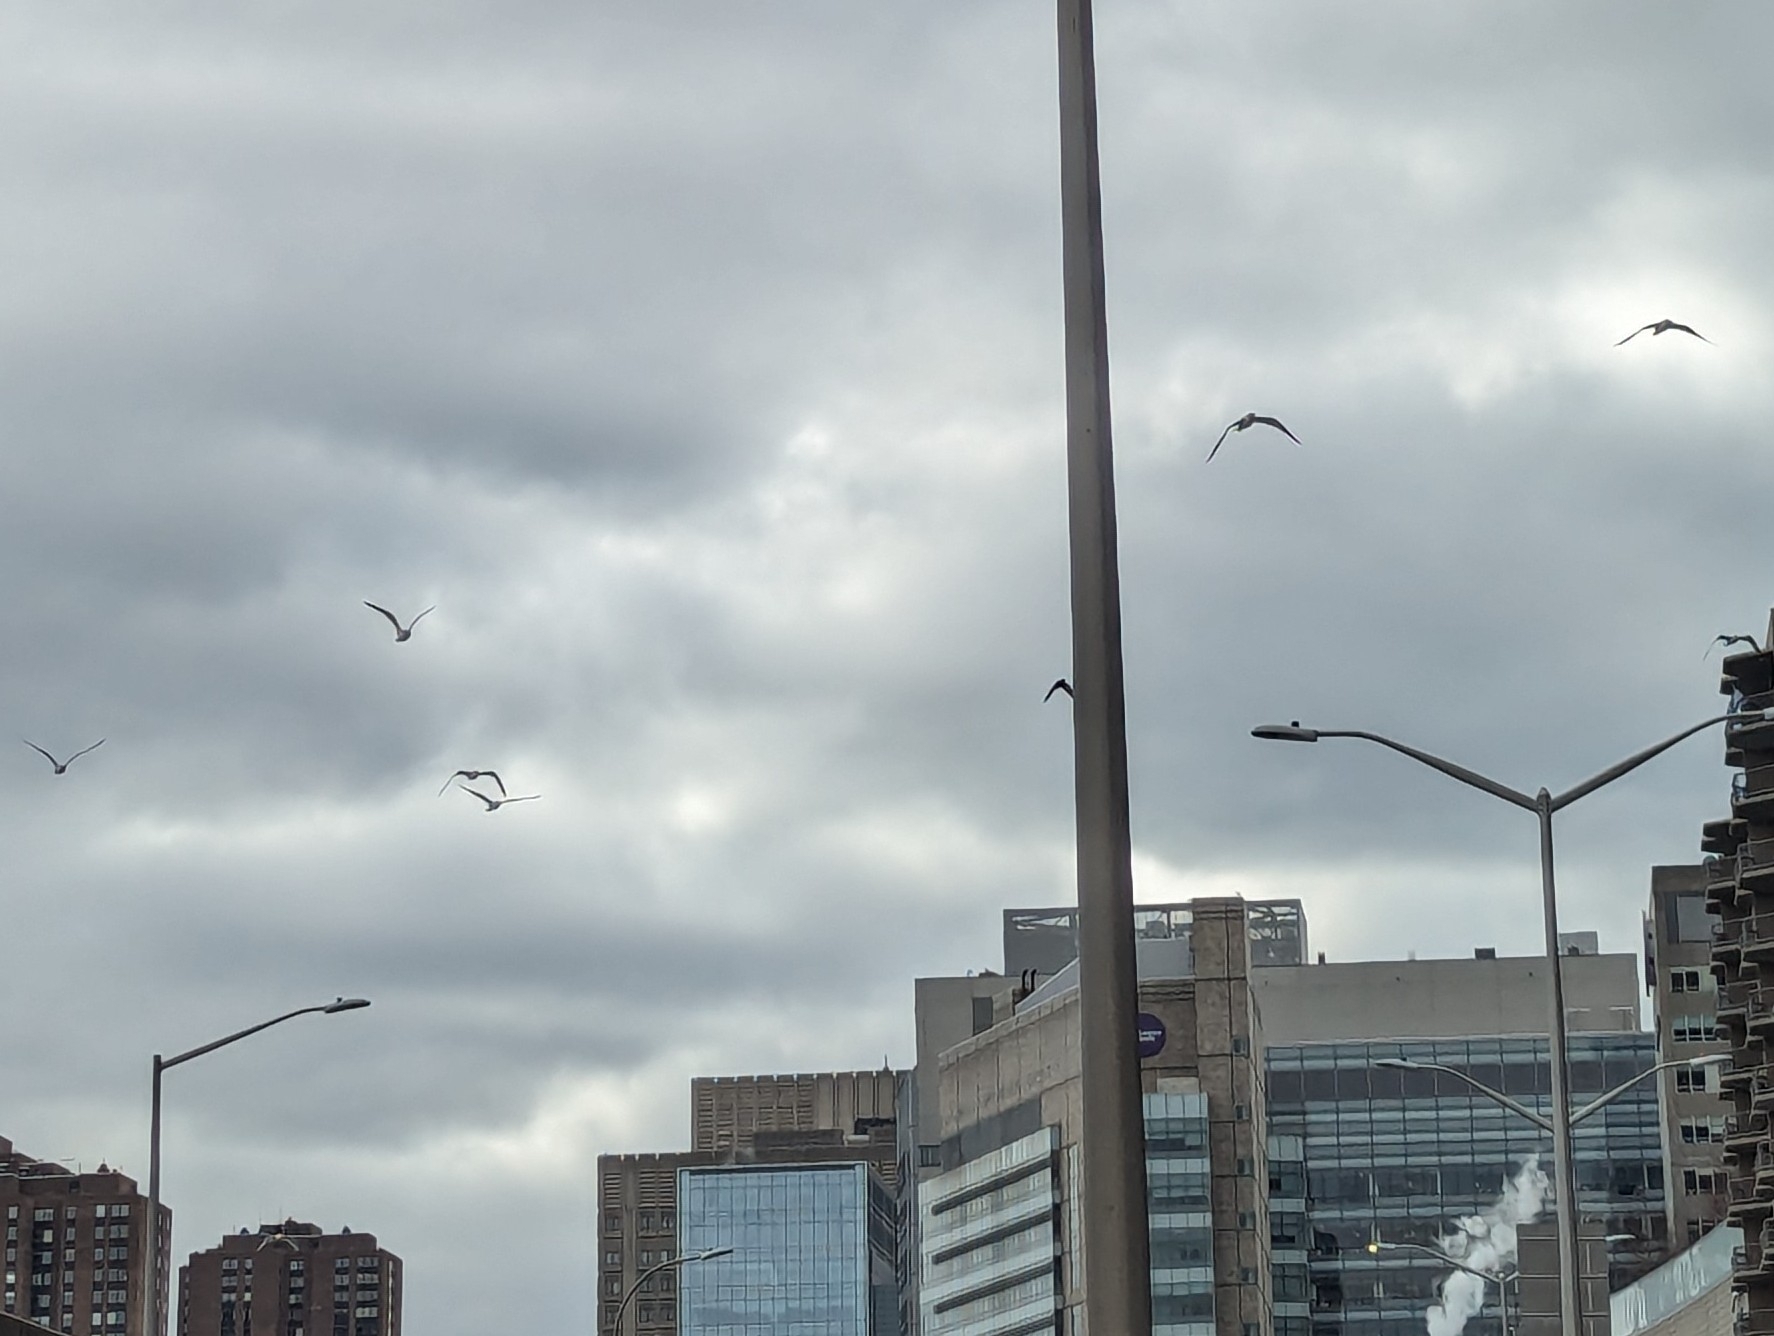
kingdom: Animalia
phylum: Chordata
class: Aves
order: Columbiformes
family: Columbidae
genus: Columba
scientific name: Columba livia
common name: Rock pigeon
